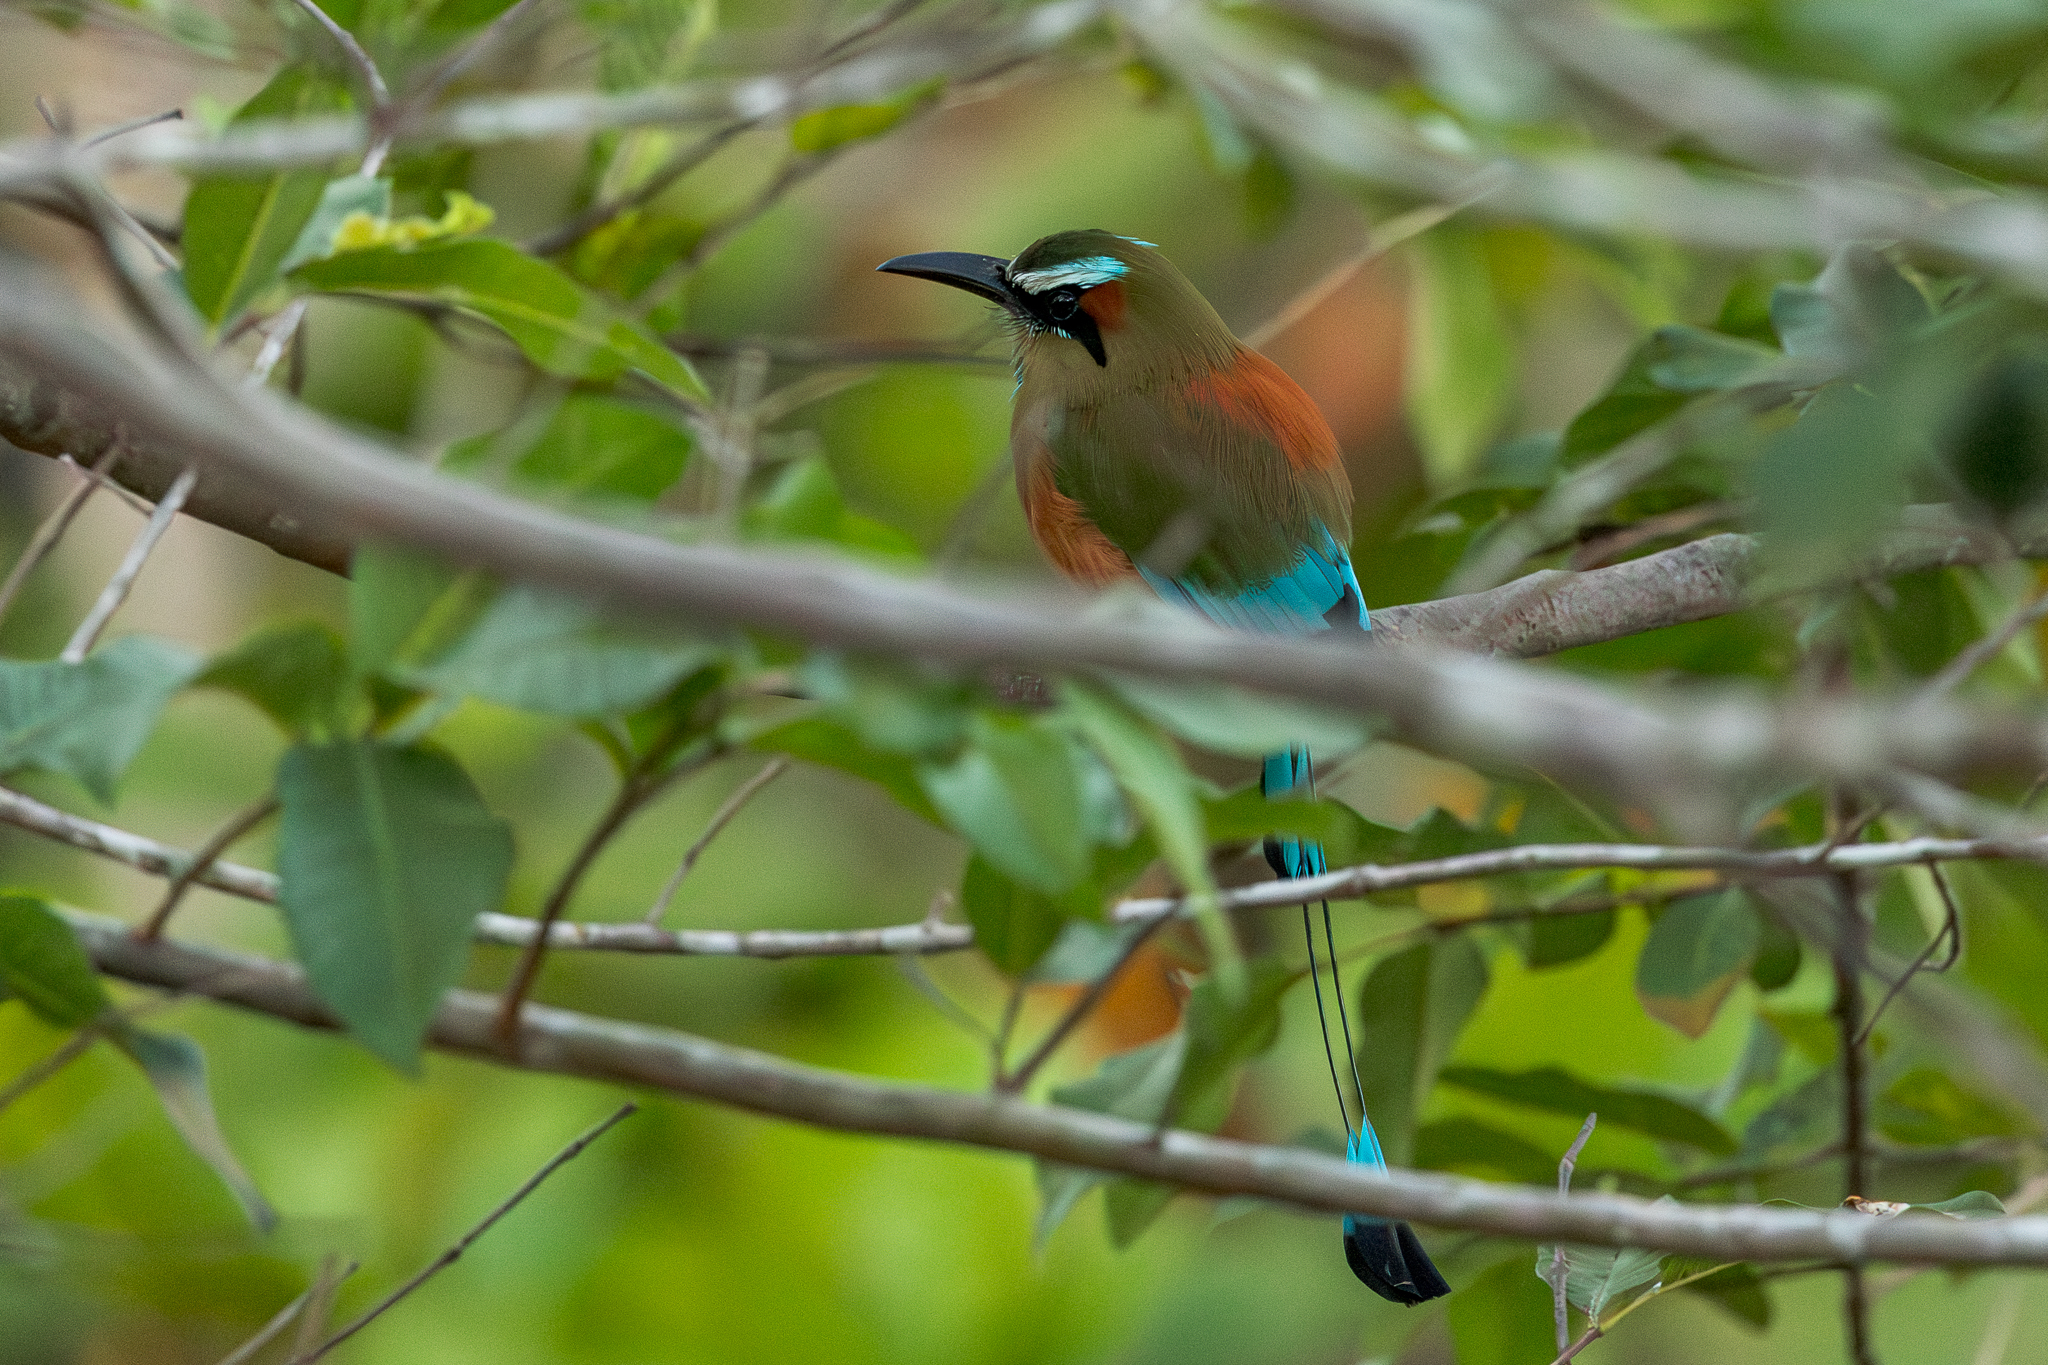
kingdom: Animalia
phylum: Chordata
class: Aves
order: Coraciiformes
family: Momotidae
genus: Eumomota
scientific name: Eumomota superciliosa
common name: Turquoise-browed motmot
